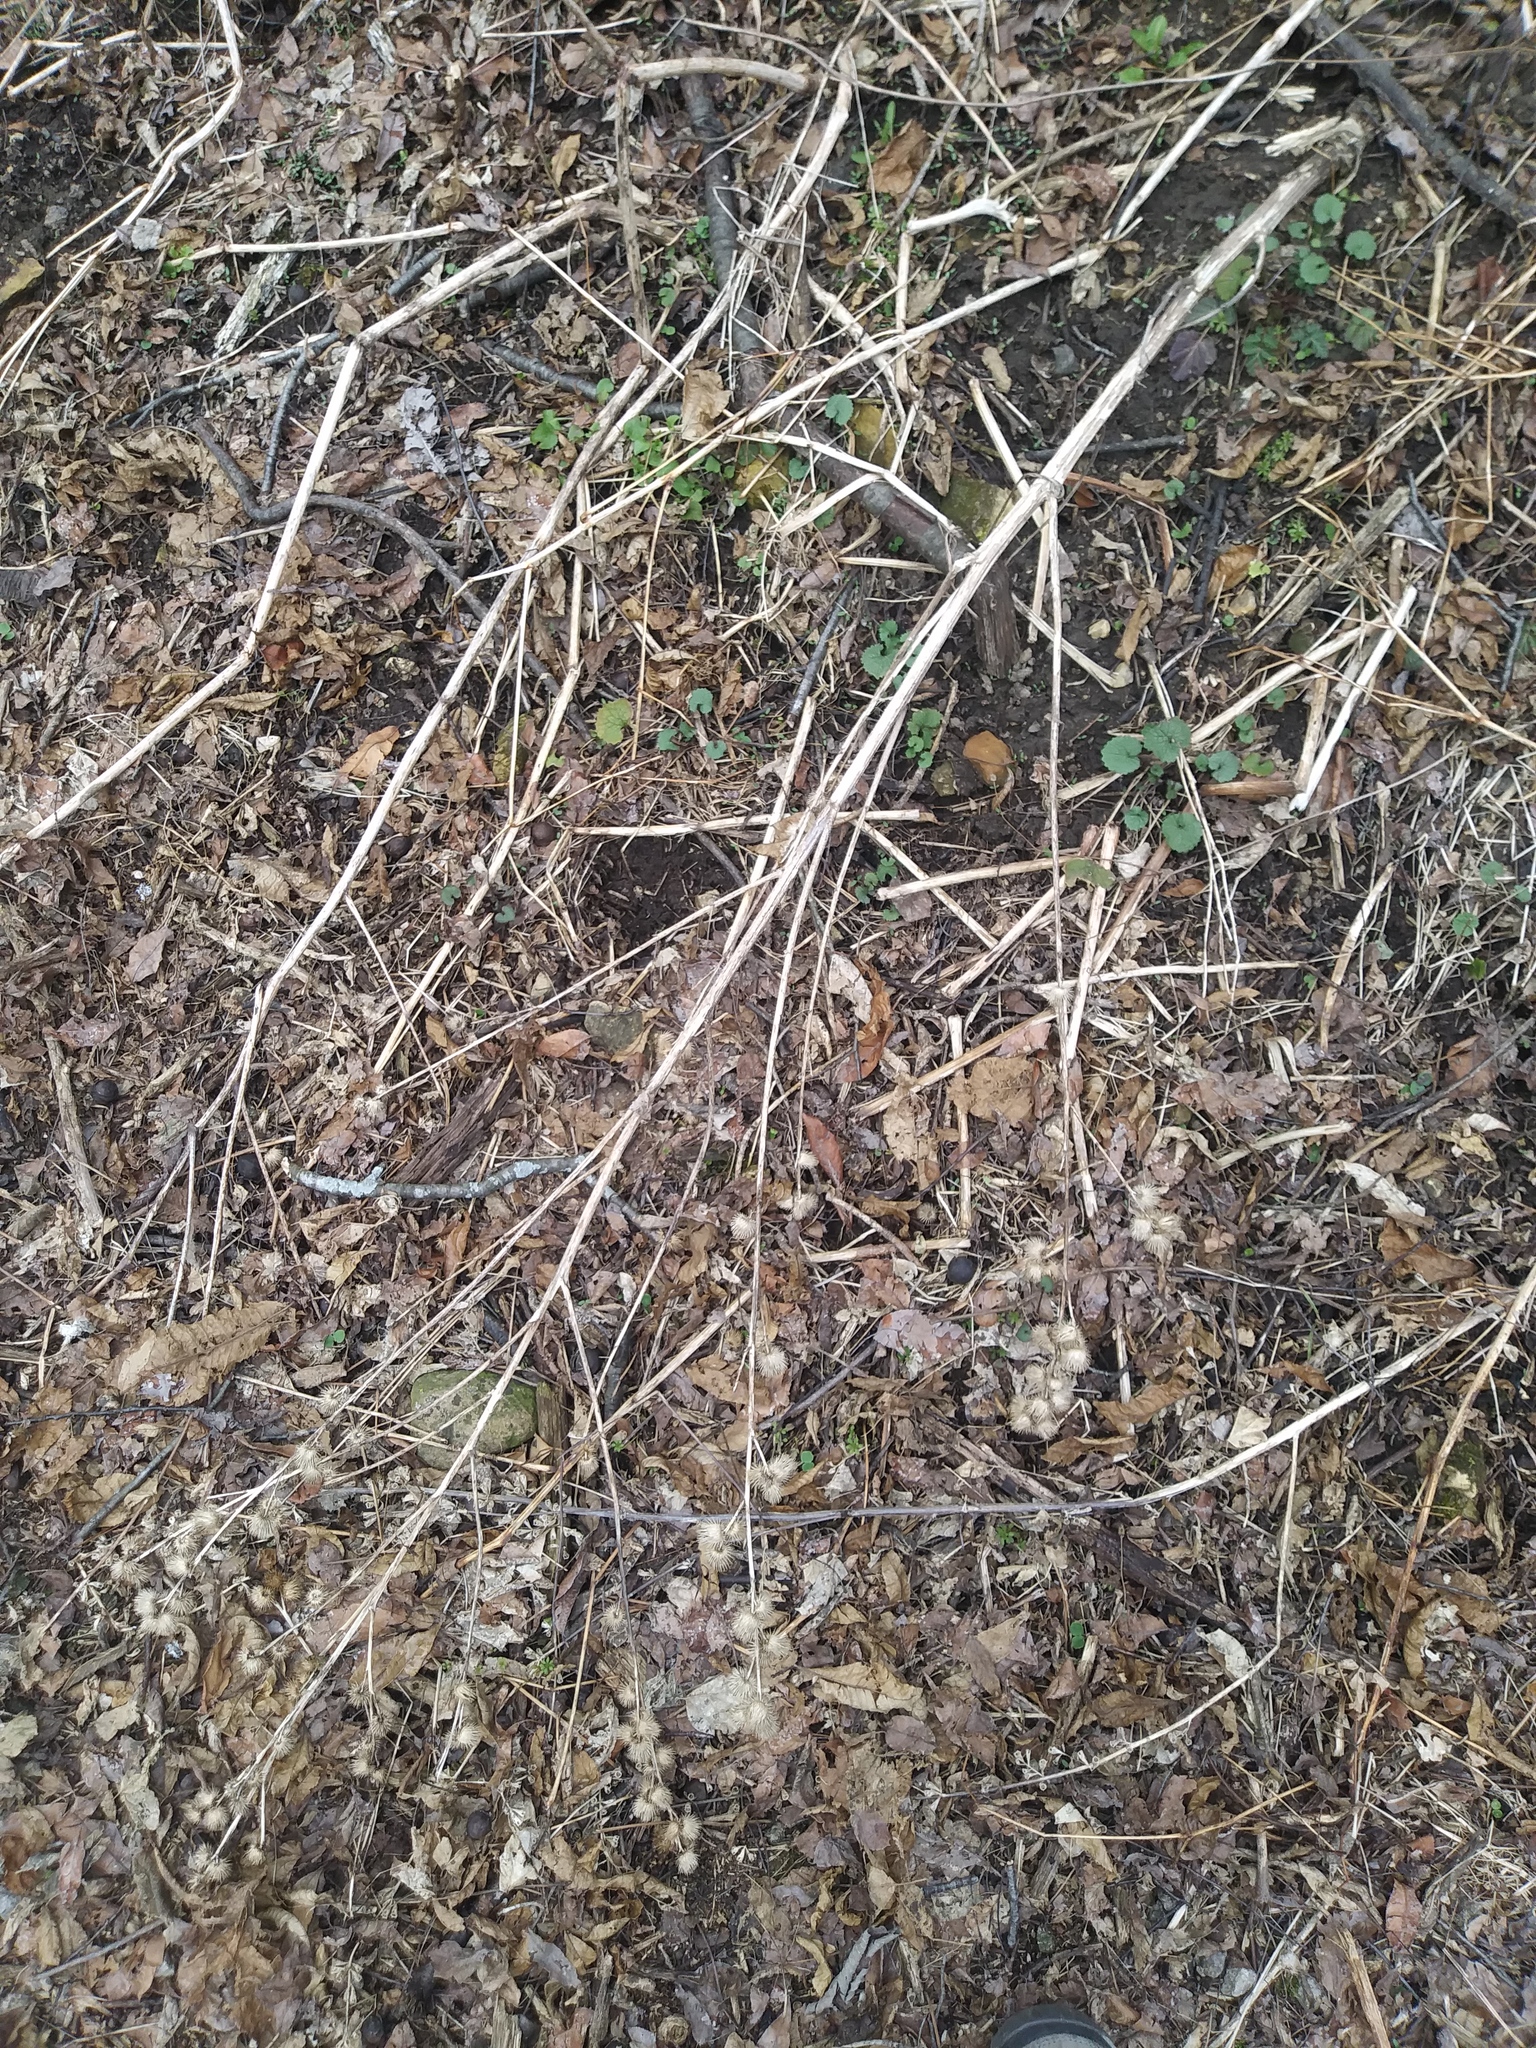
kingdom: Plantae
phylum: Tracheophyta
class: Magnoliopsida
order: Asterales
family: Asteraceae
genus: Arctium
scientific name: Arctium minus
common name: Lesser burdock
